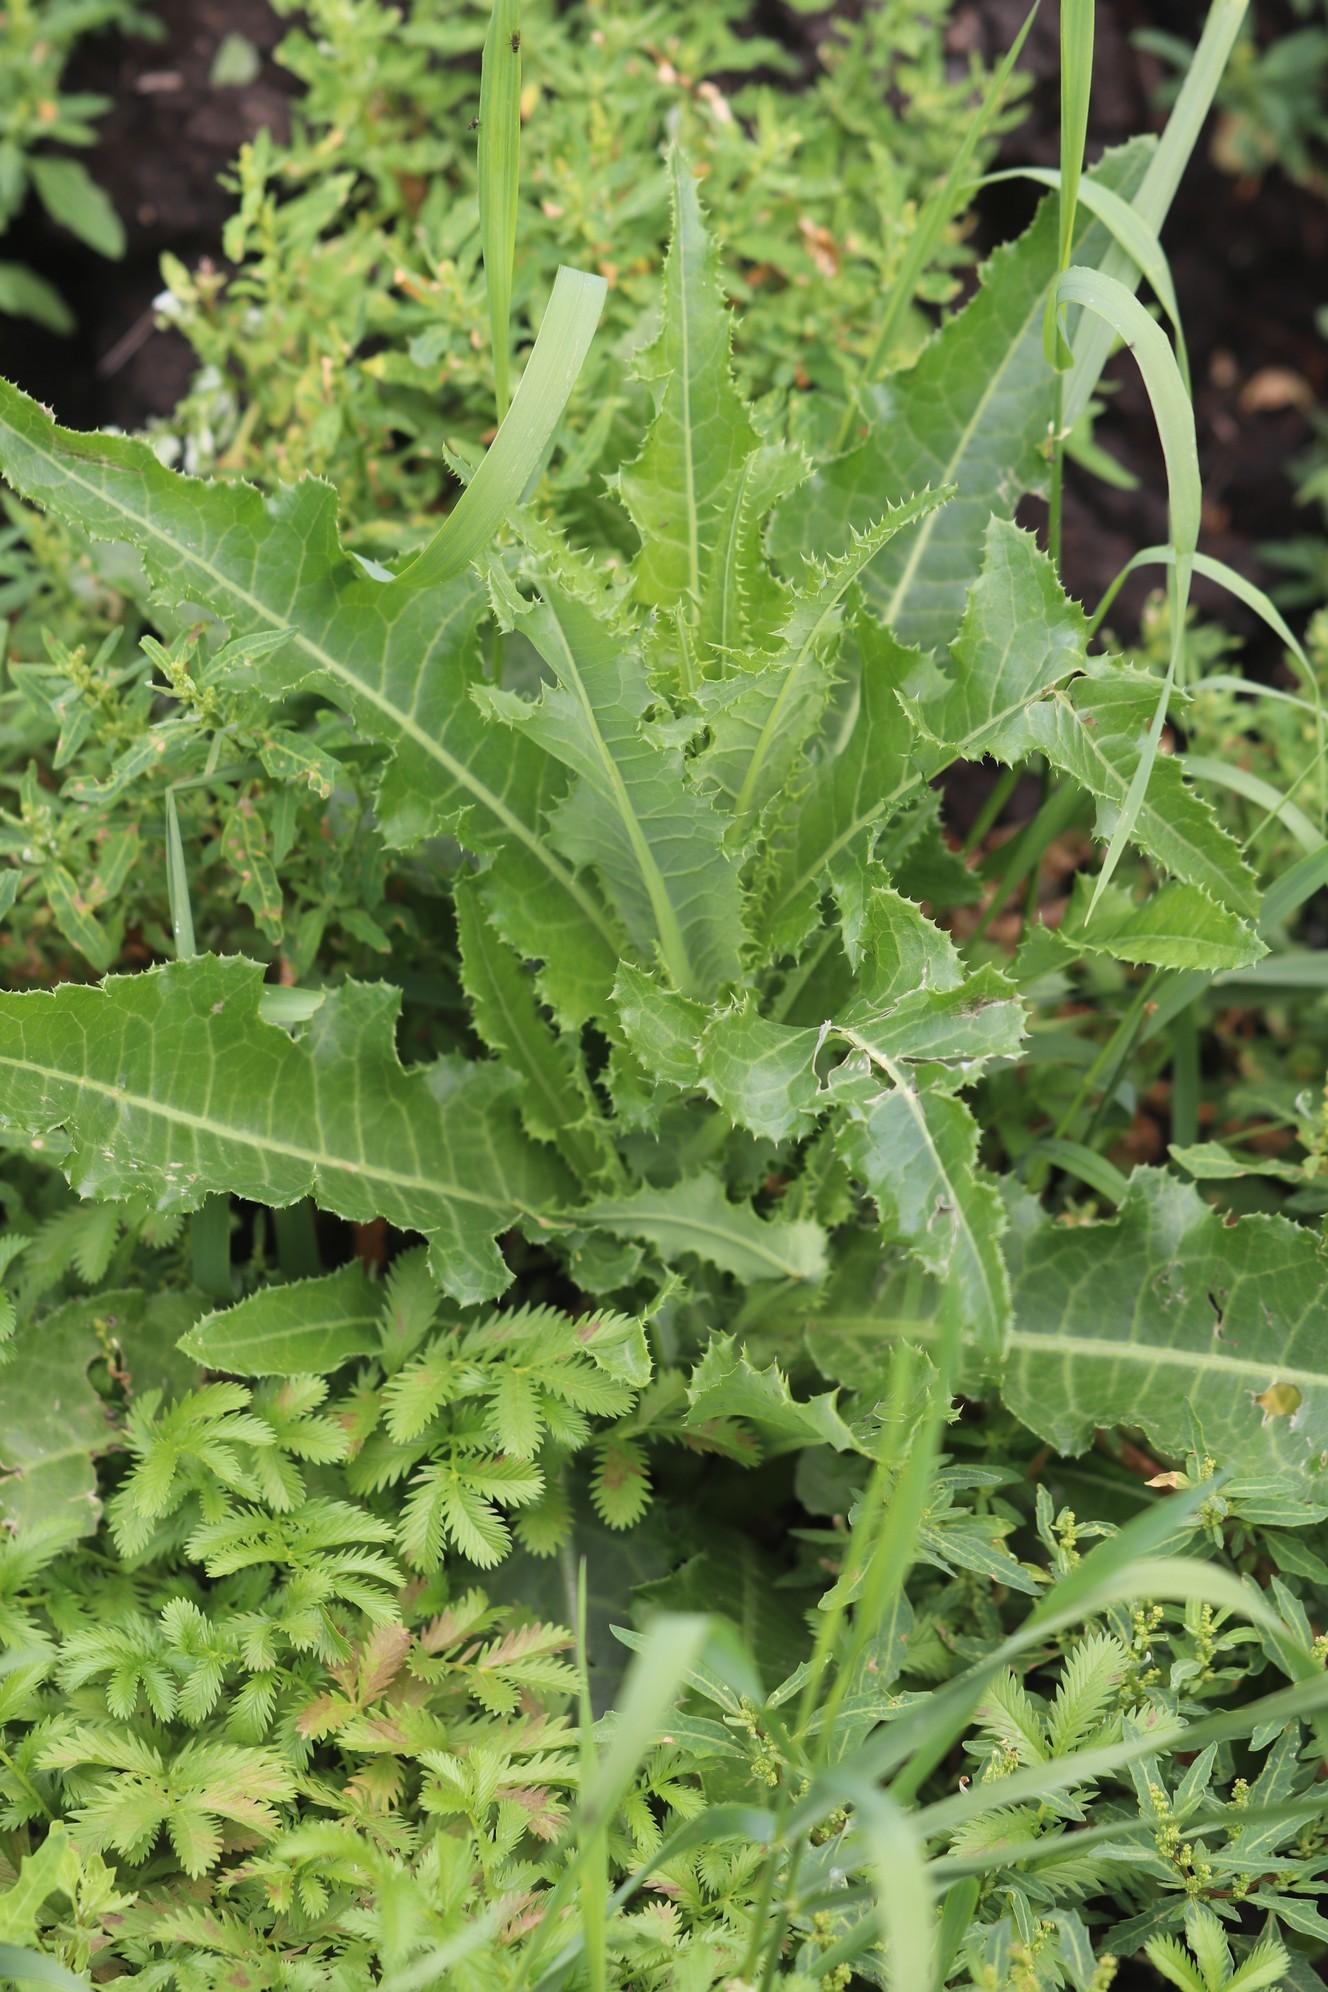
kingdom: Plantae
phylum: Tracheophyta
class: Magnoliopsida
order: Asterales
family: Asteraceae
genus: Sonchus
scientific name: Sonchus arvensis
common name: Perennial sow-thistle
